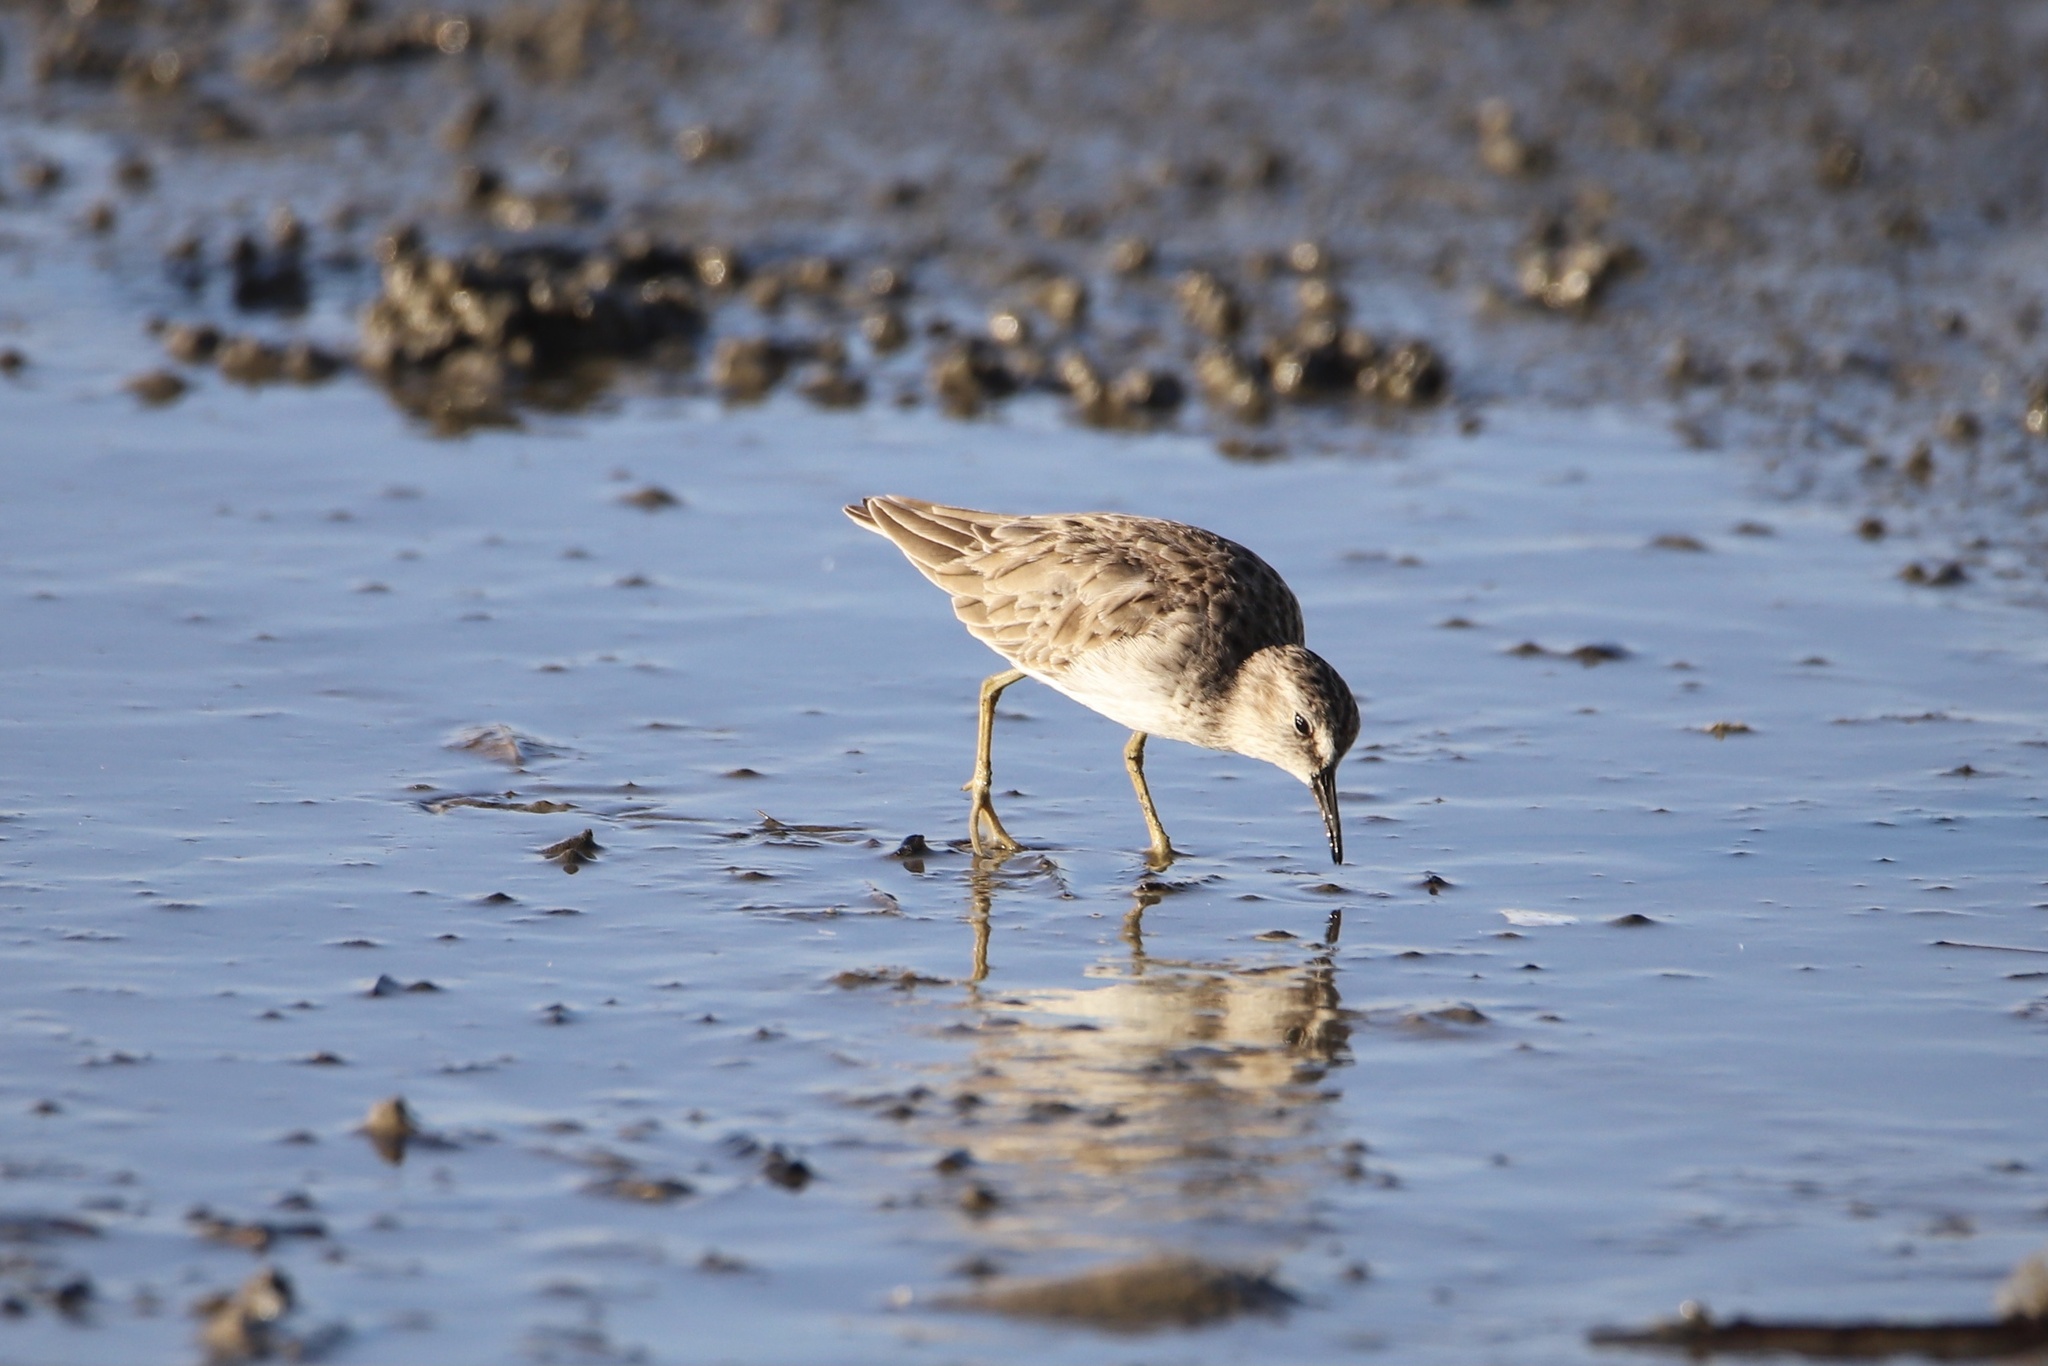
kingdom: Animalia
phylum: Chordata
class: Aves
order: Charadriiformes
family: Scolopacidae
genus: Calidris
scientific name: Calidris minutilla
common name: Least sandpiper
